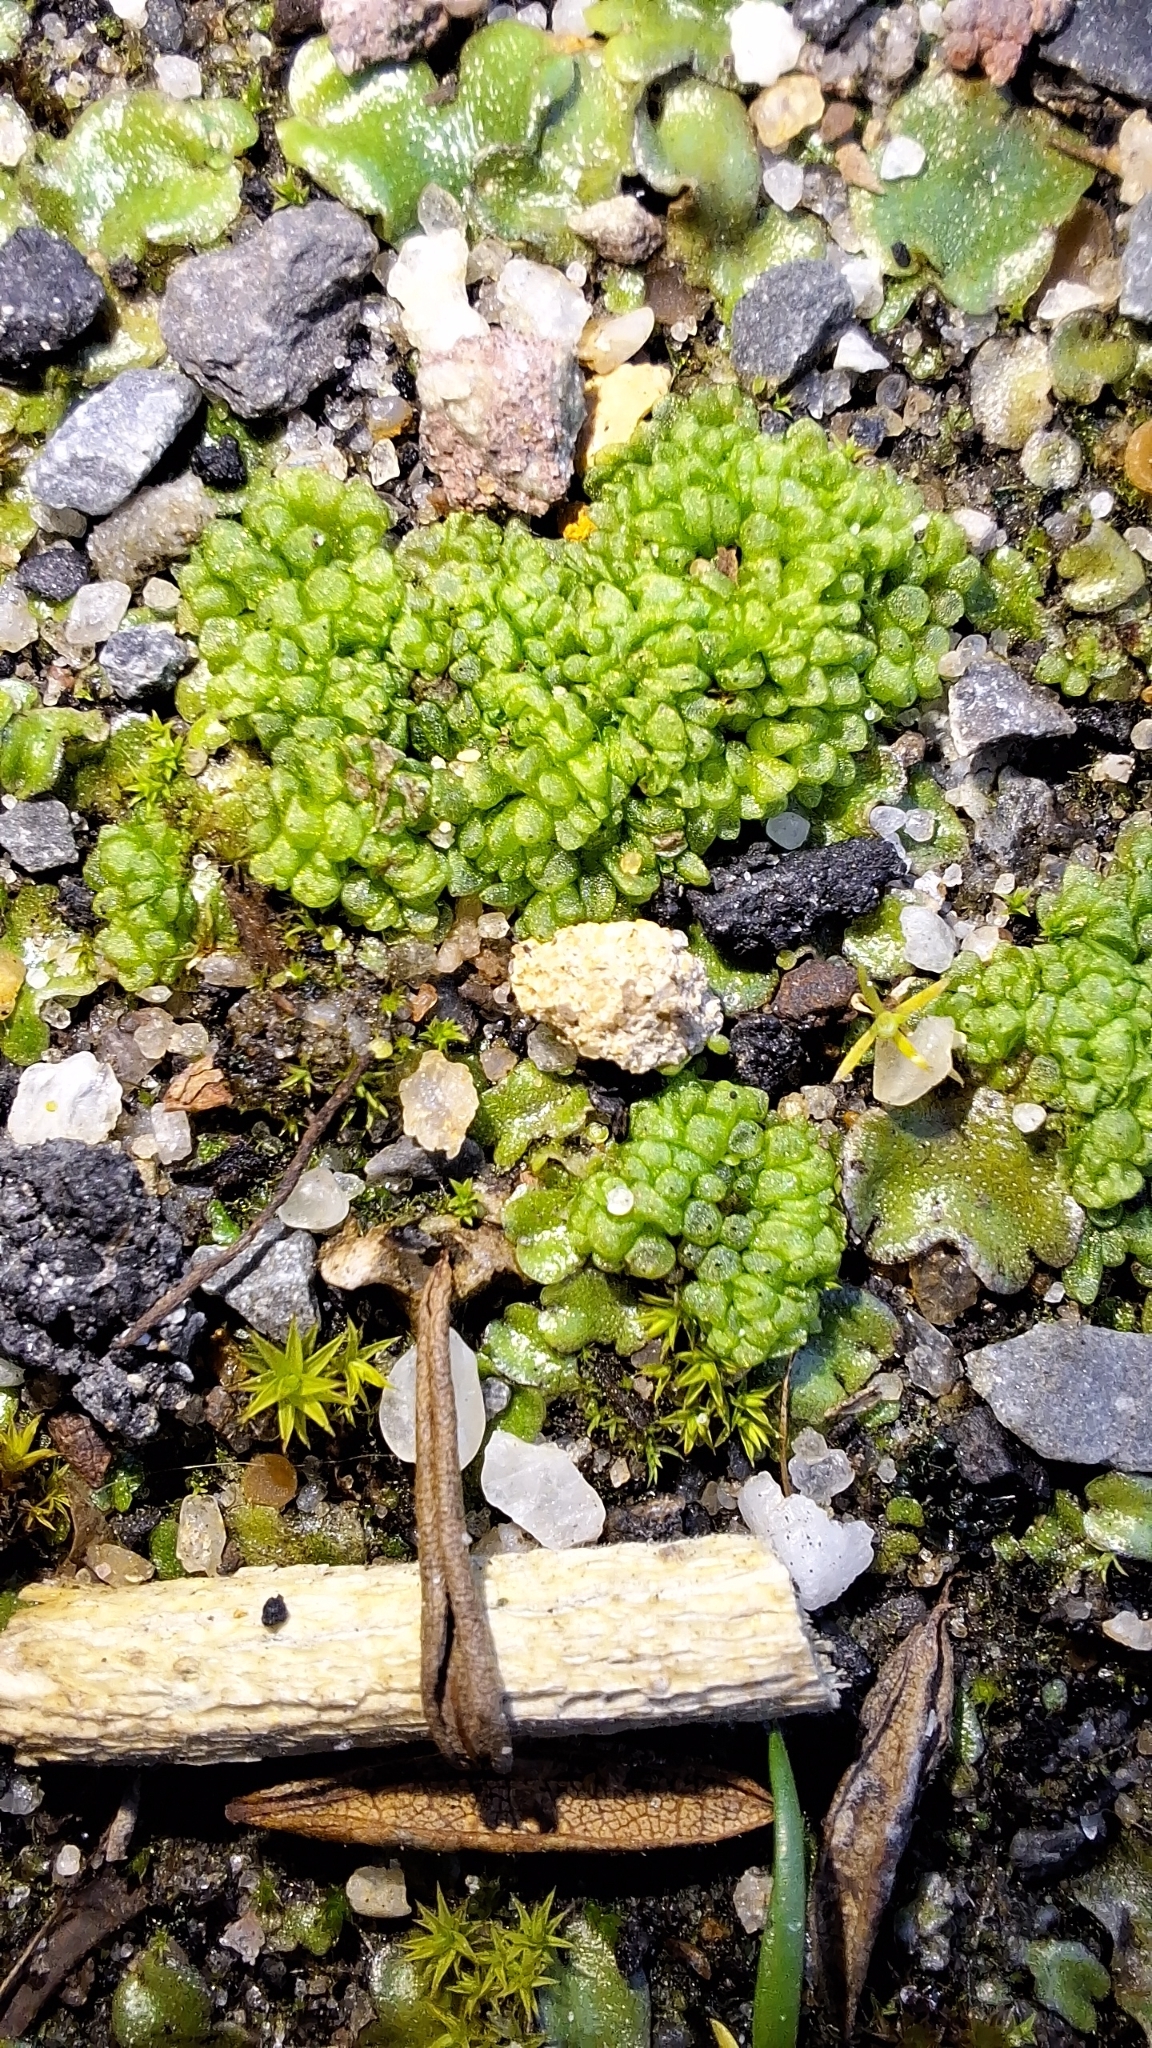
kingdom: Plantae
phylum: Marchantiophyta
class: Marchantiopsida
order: Sphaerocarpales
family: Sphaerocarpaceae
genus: Sphaerocarpos
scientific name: Sphaerocarpos texanus
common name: Texas balloonwort
